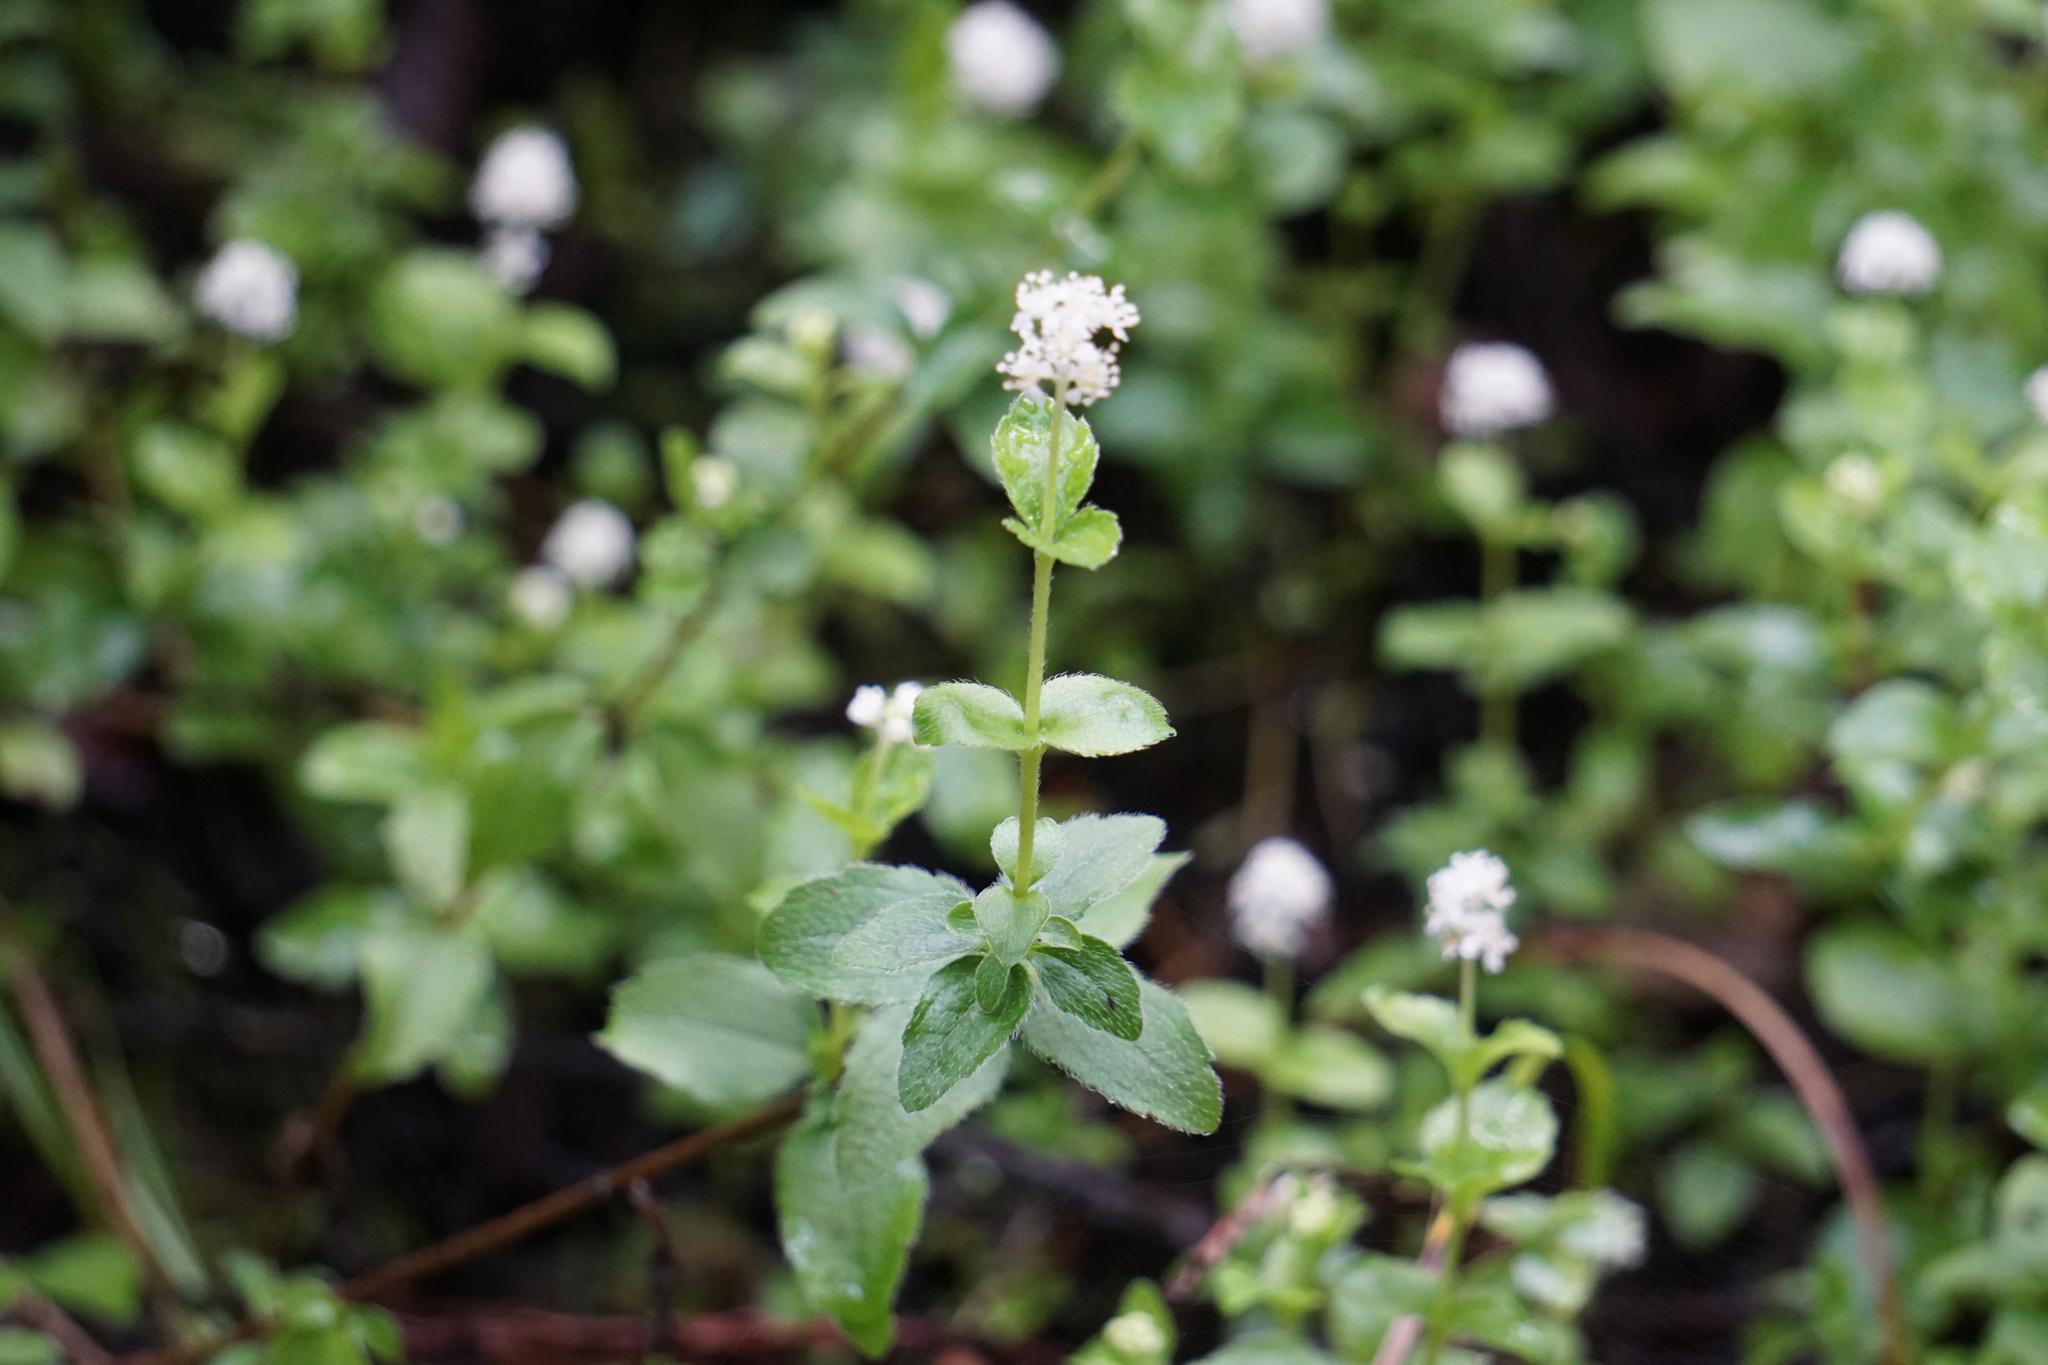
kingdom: Plantae
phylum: Tracheophyta
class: Magnoliopsida
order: Cornales
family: Hydrangeaceae
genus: Whipplea
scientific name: Whipplea modesta
